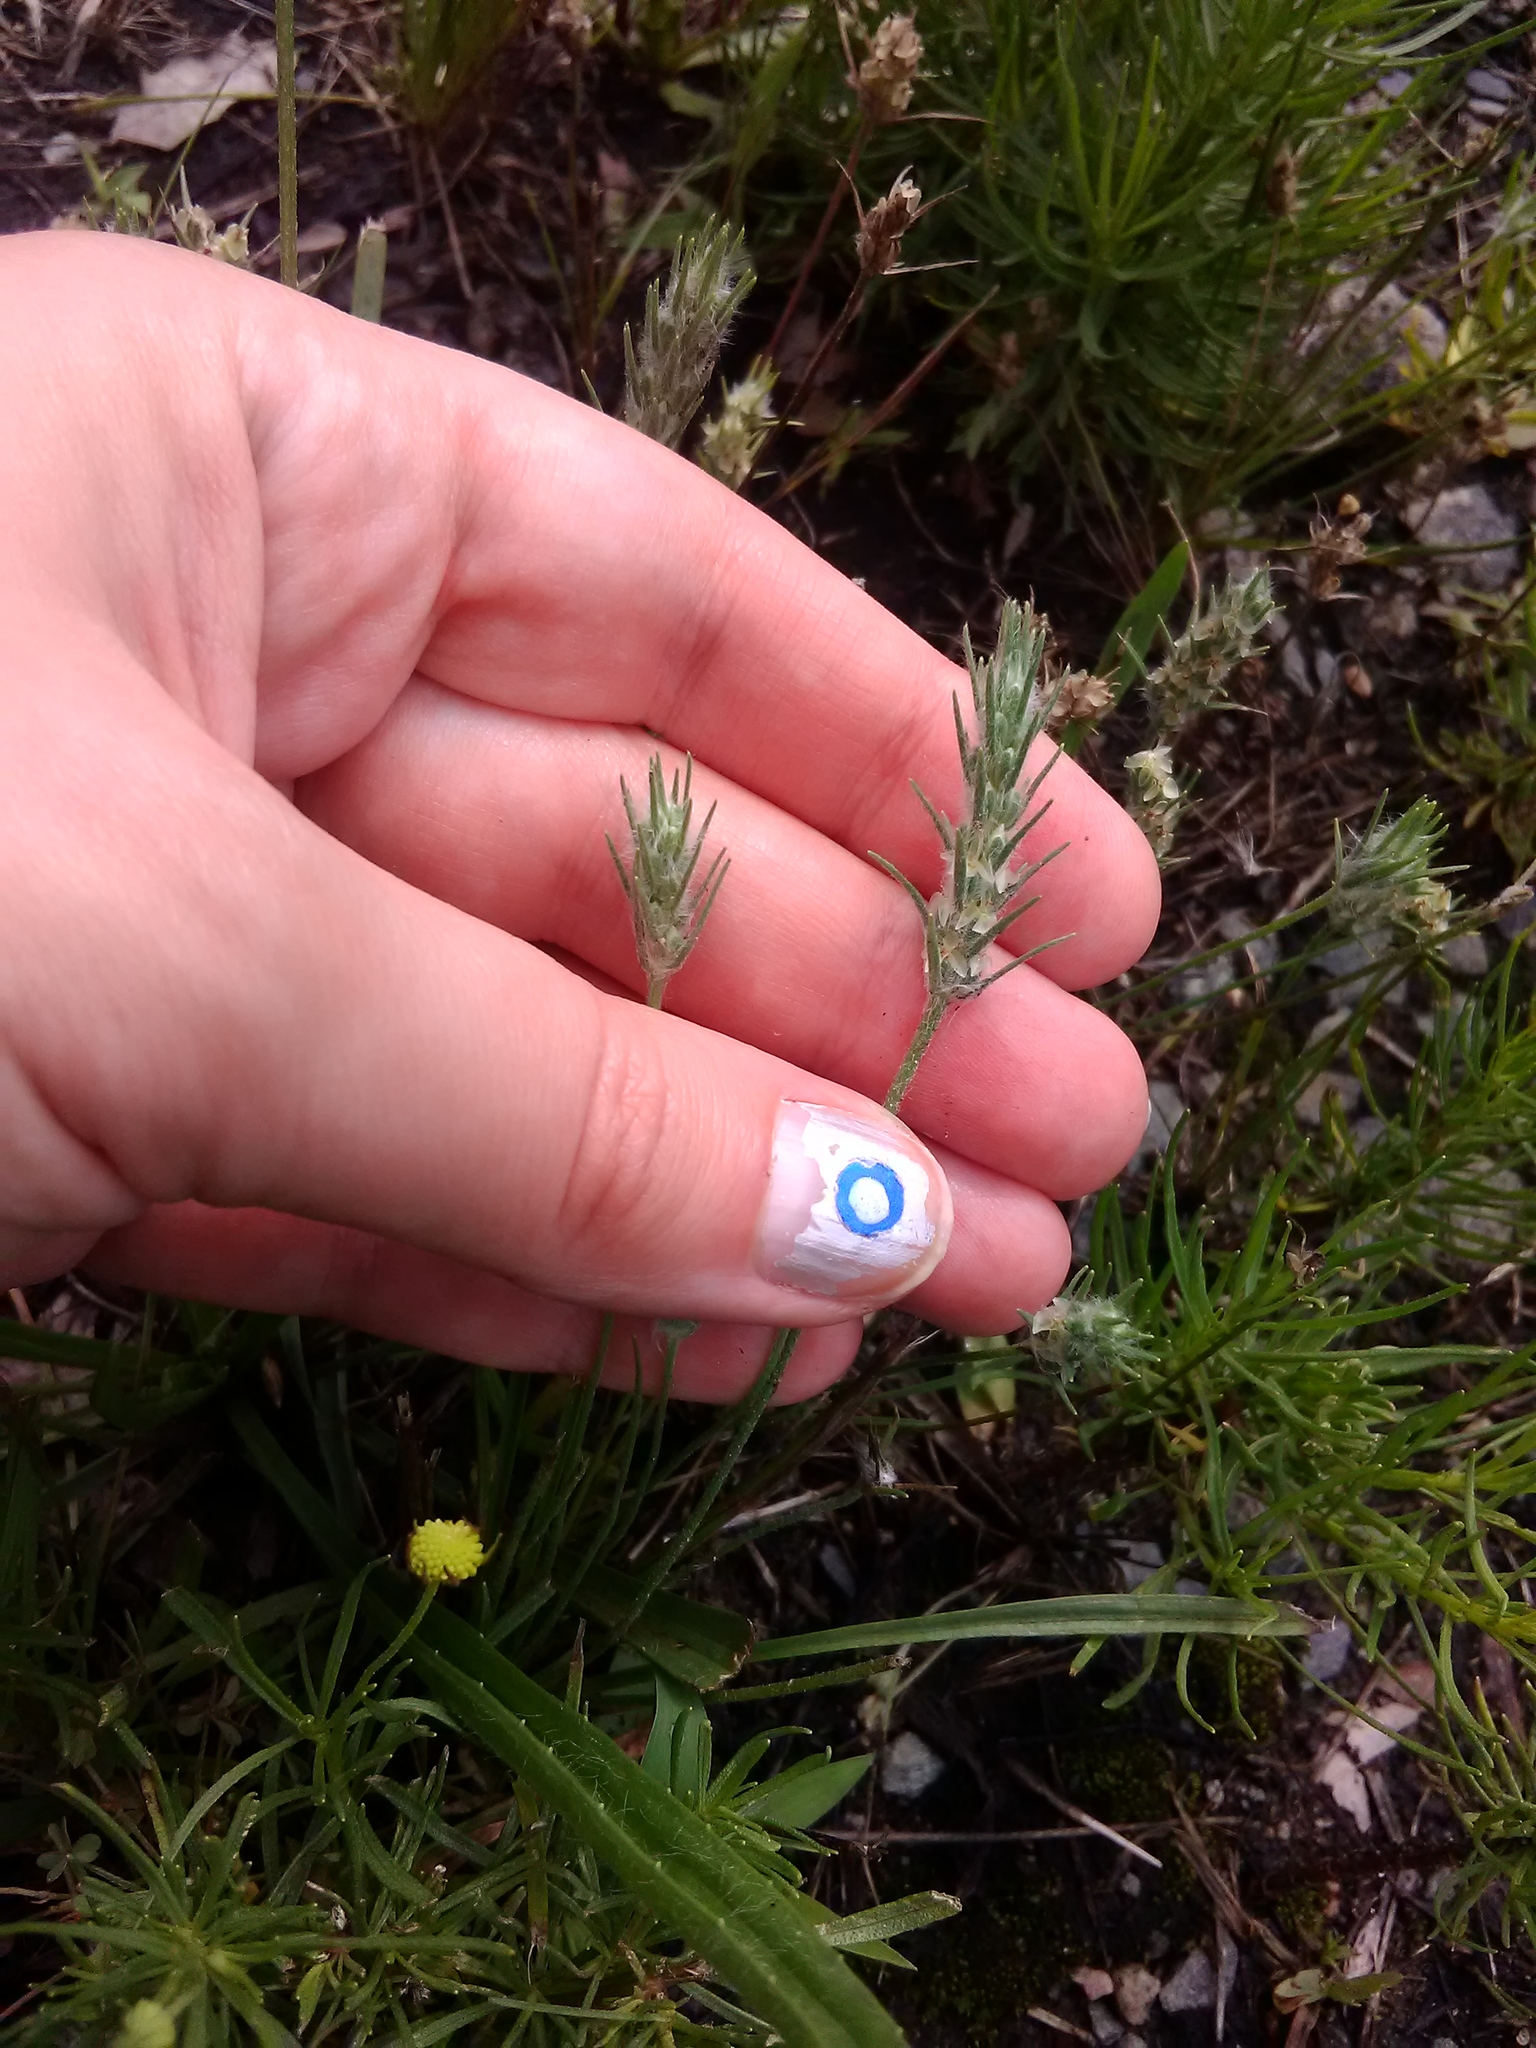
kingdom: Plantae
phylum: Tracheophyta
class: Magnoliopsida
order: Lamiales
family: Plantaginaceae
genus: Plantago
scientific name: Plantago aristata
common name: Bracted plantain
